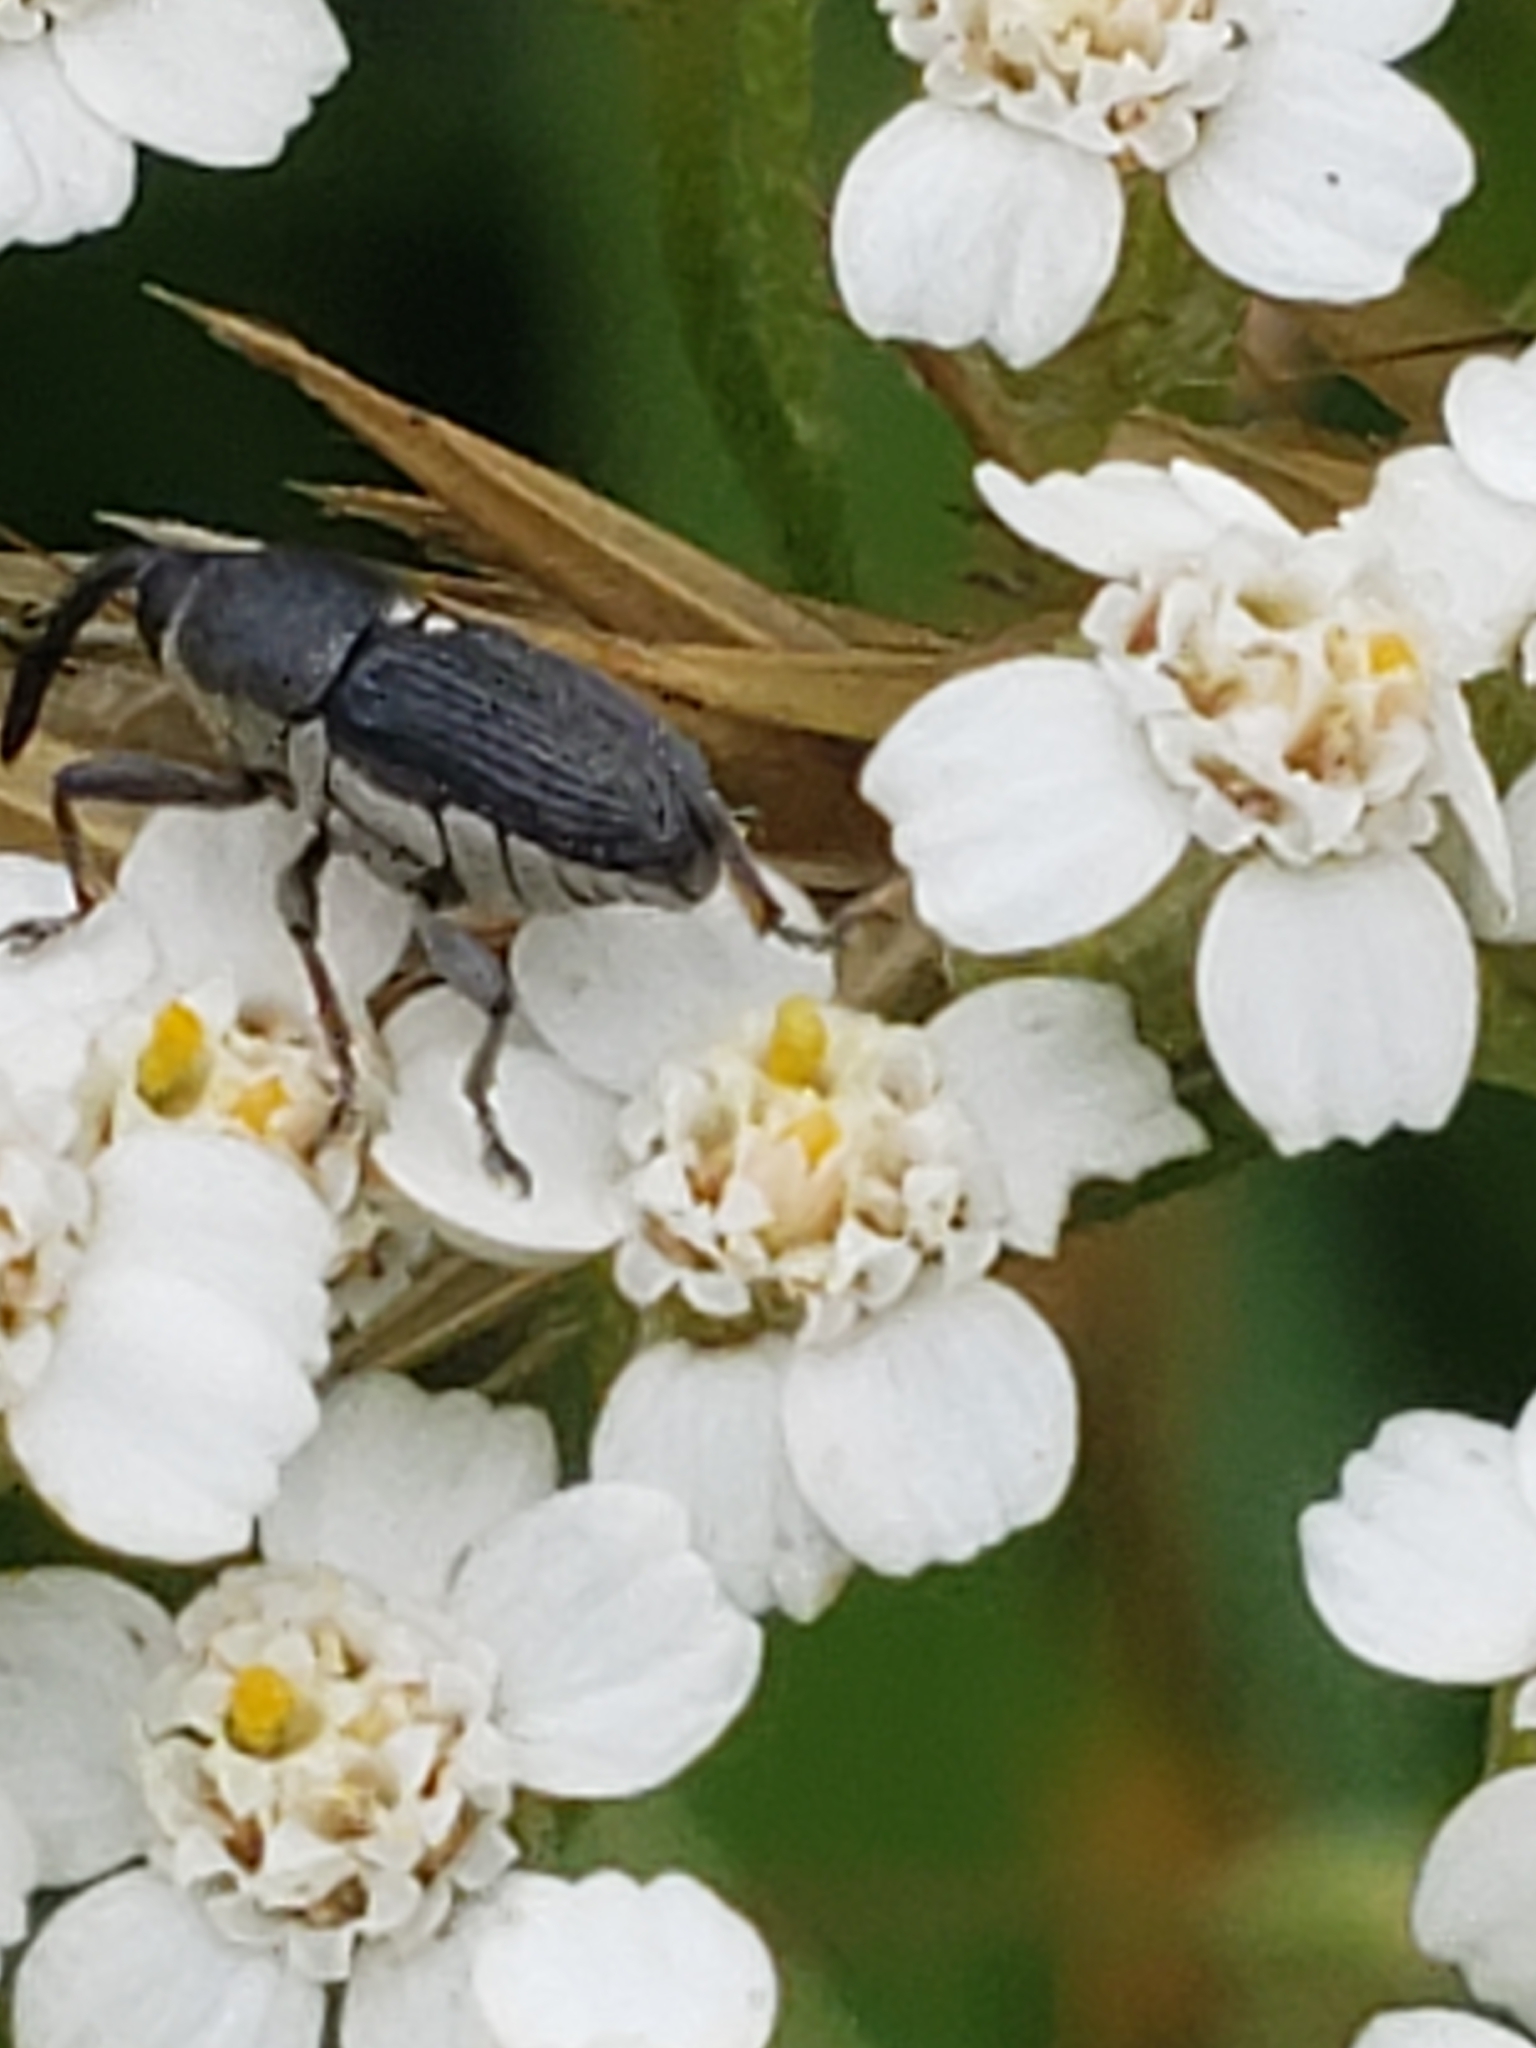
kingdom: Animalia
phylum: Arthropoda
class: Insecta
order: Coleoptera
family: Curculionidae
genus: Odontocorynus
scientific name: Odontocorynus salebrosus
